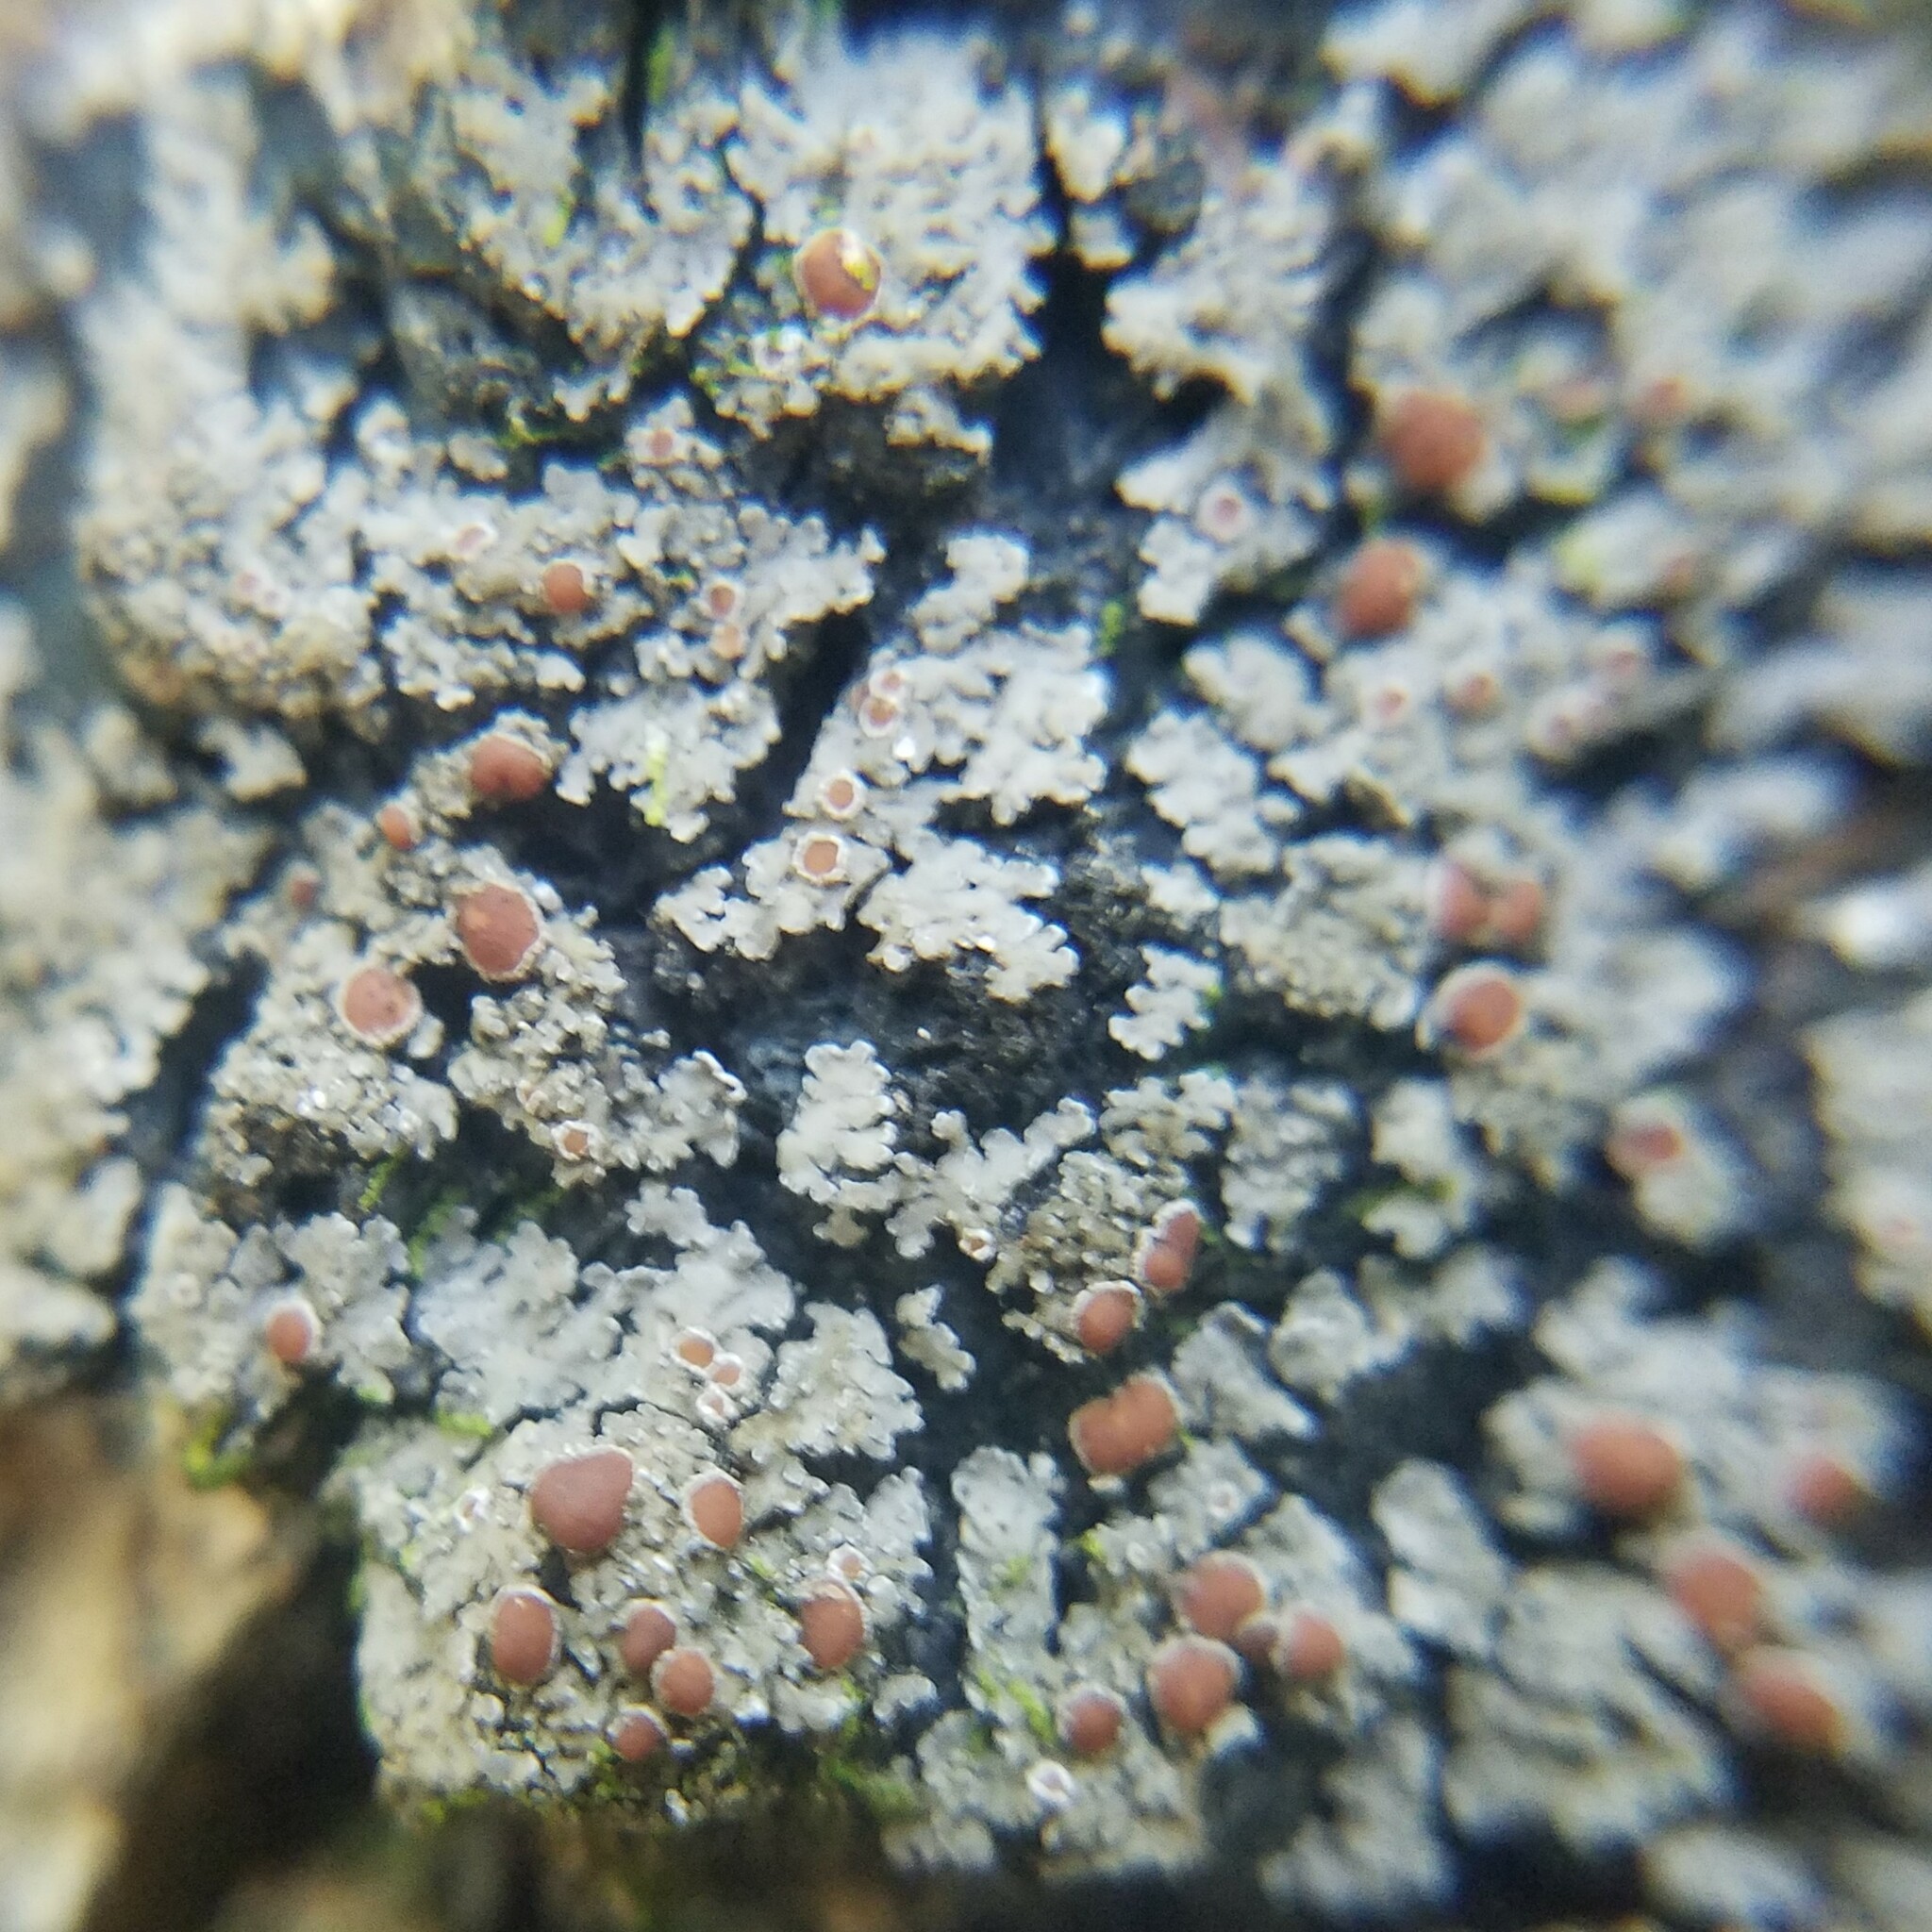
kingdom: Fungi
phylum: Ascomycota
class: Lecanoromycetes
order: Peltigerales
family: Pannariaceae
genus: Fuscopannaria
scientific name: Fuscopannaria leucosticta
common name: Rimmed shingle lichen
